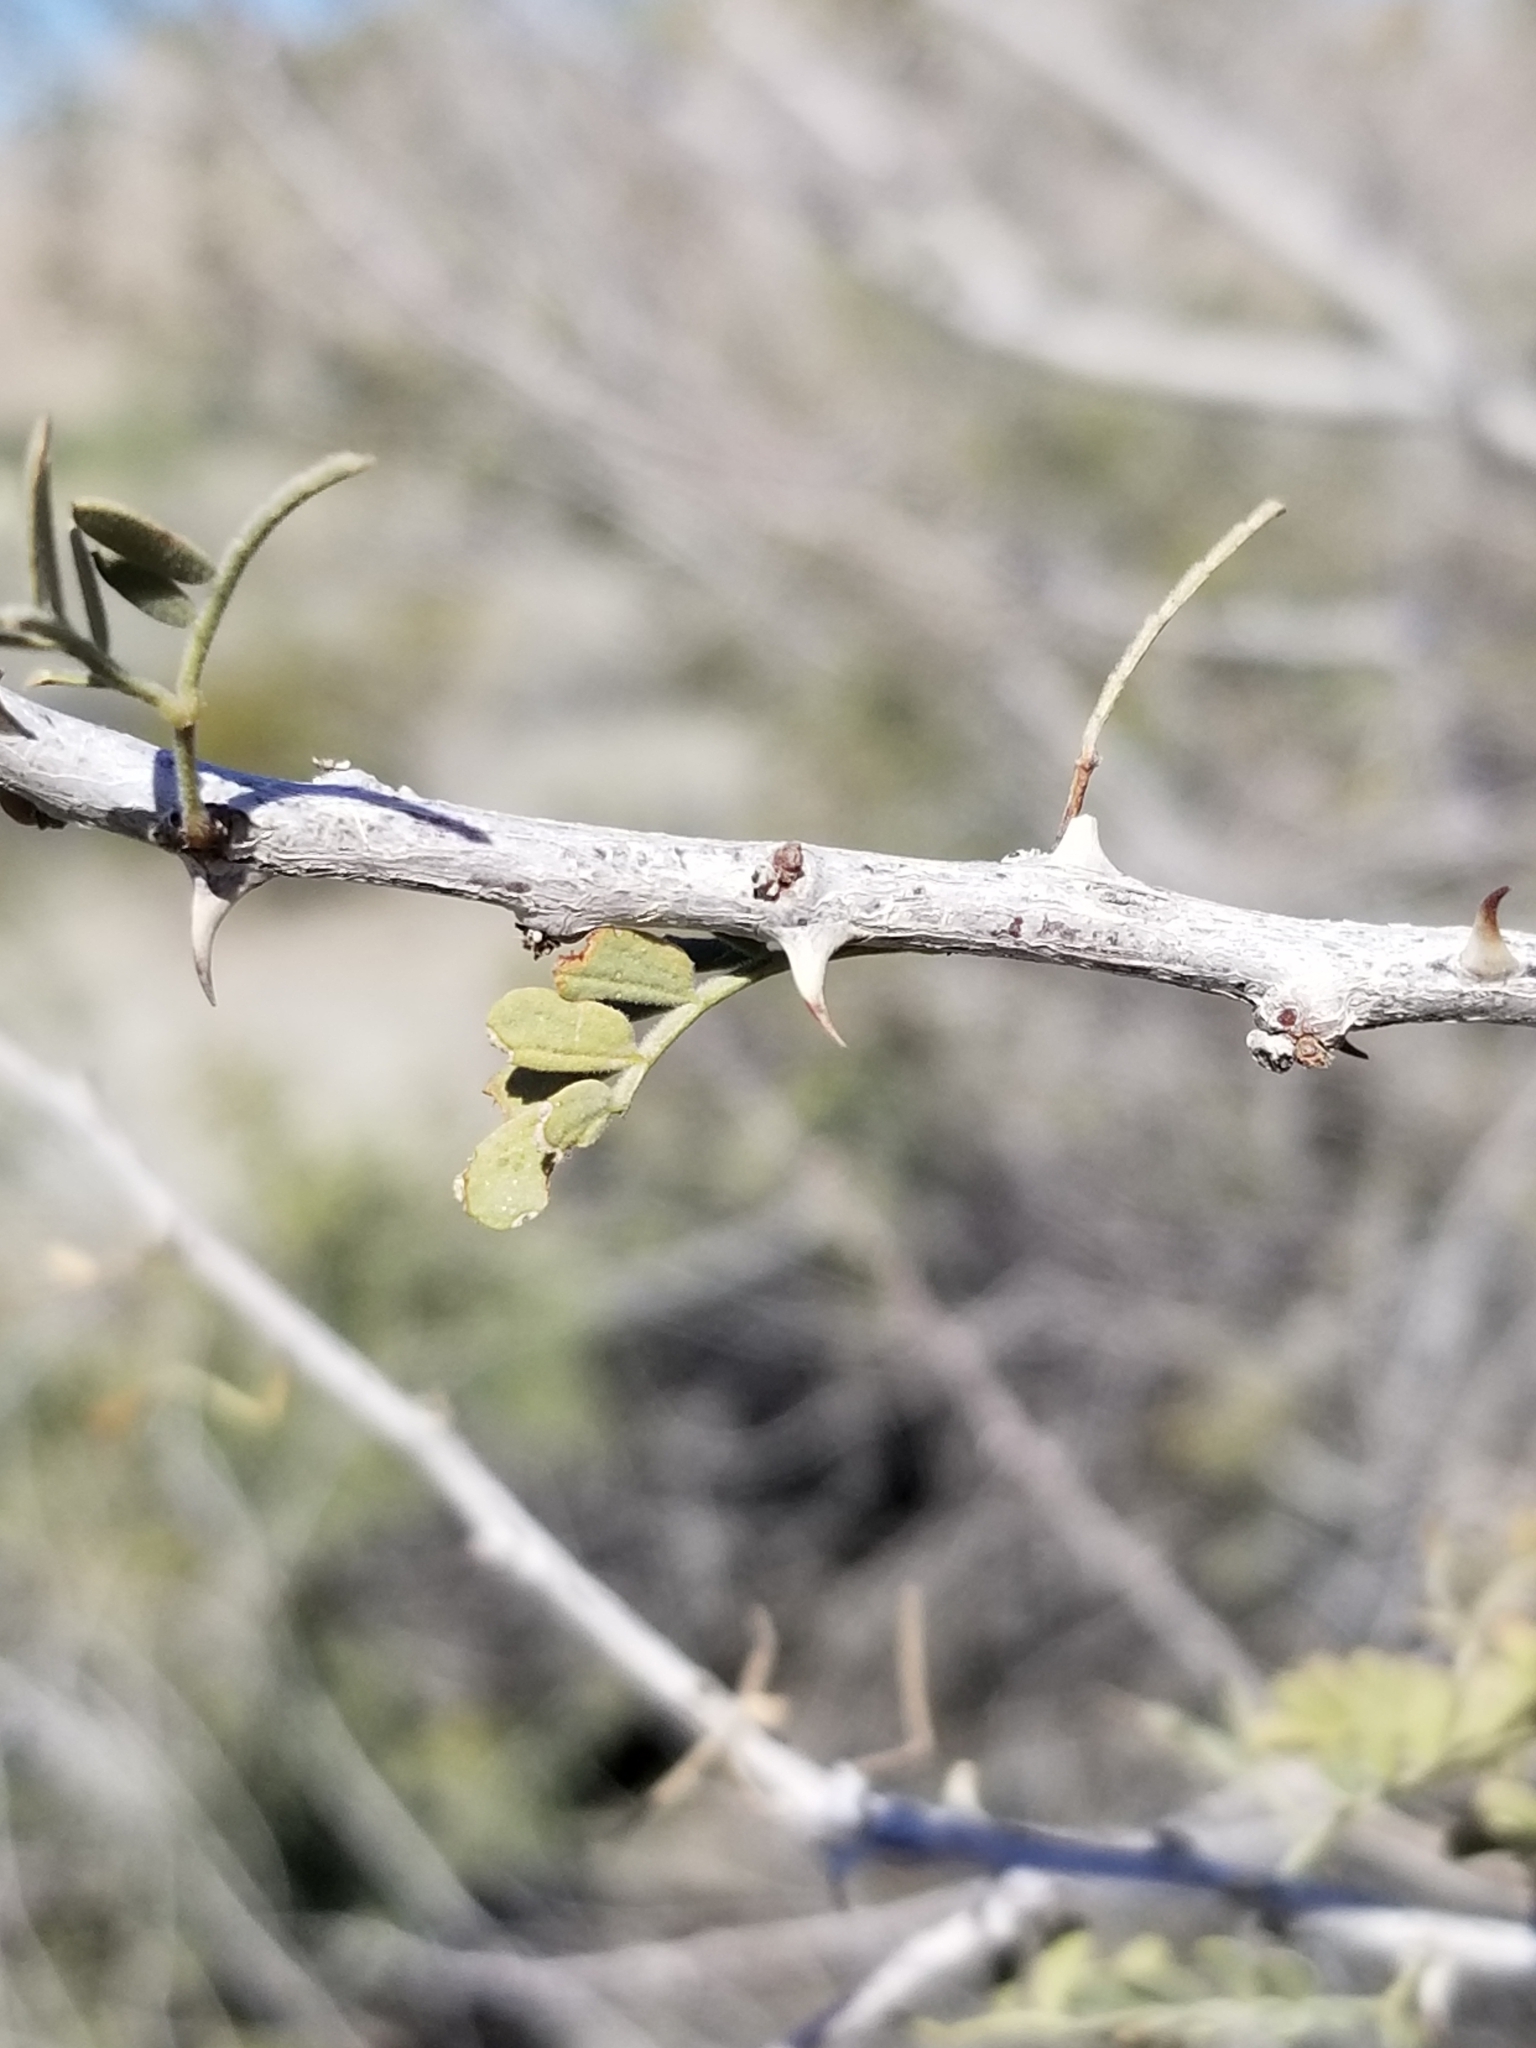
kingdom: Plantae
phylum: Tracheophyta
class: Magnoliopsida
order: Fabales
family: Fabaceae
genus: Senegalia
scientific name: Senegalia greggii
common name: Texas-mimosa
